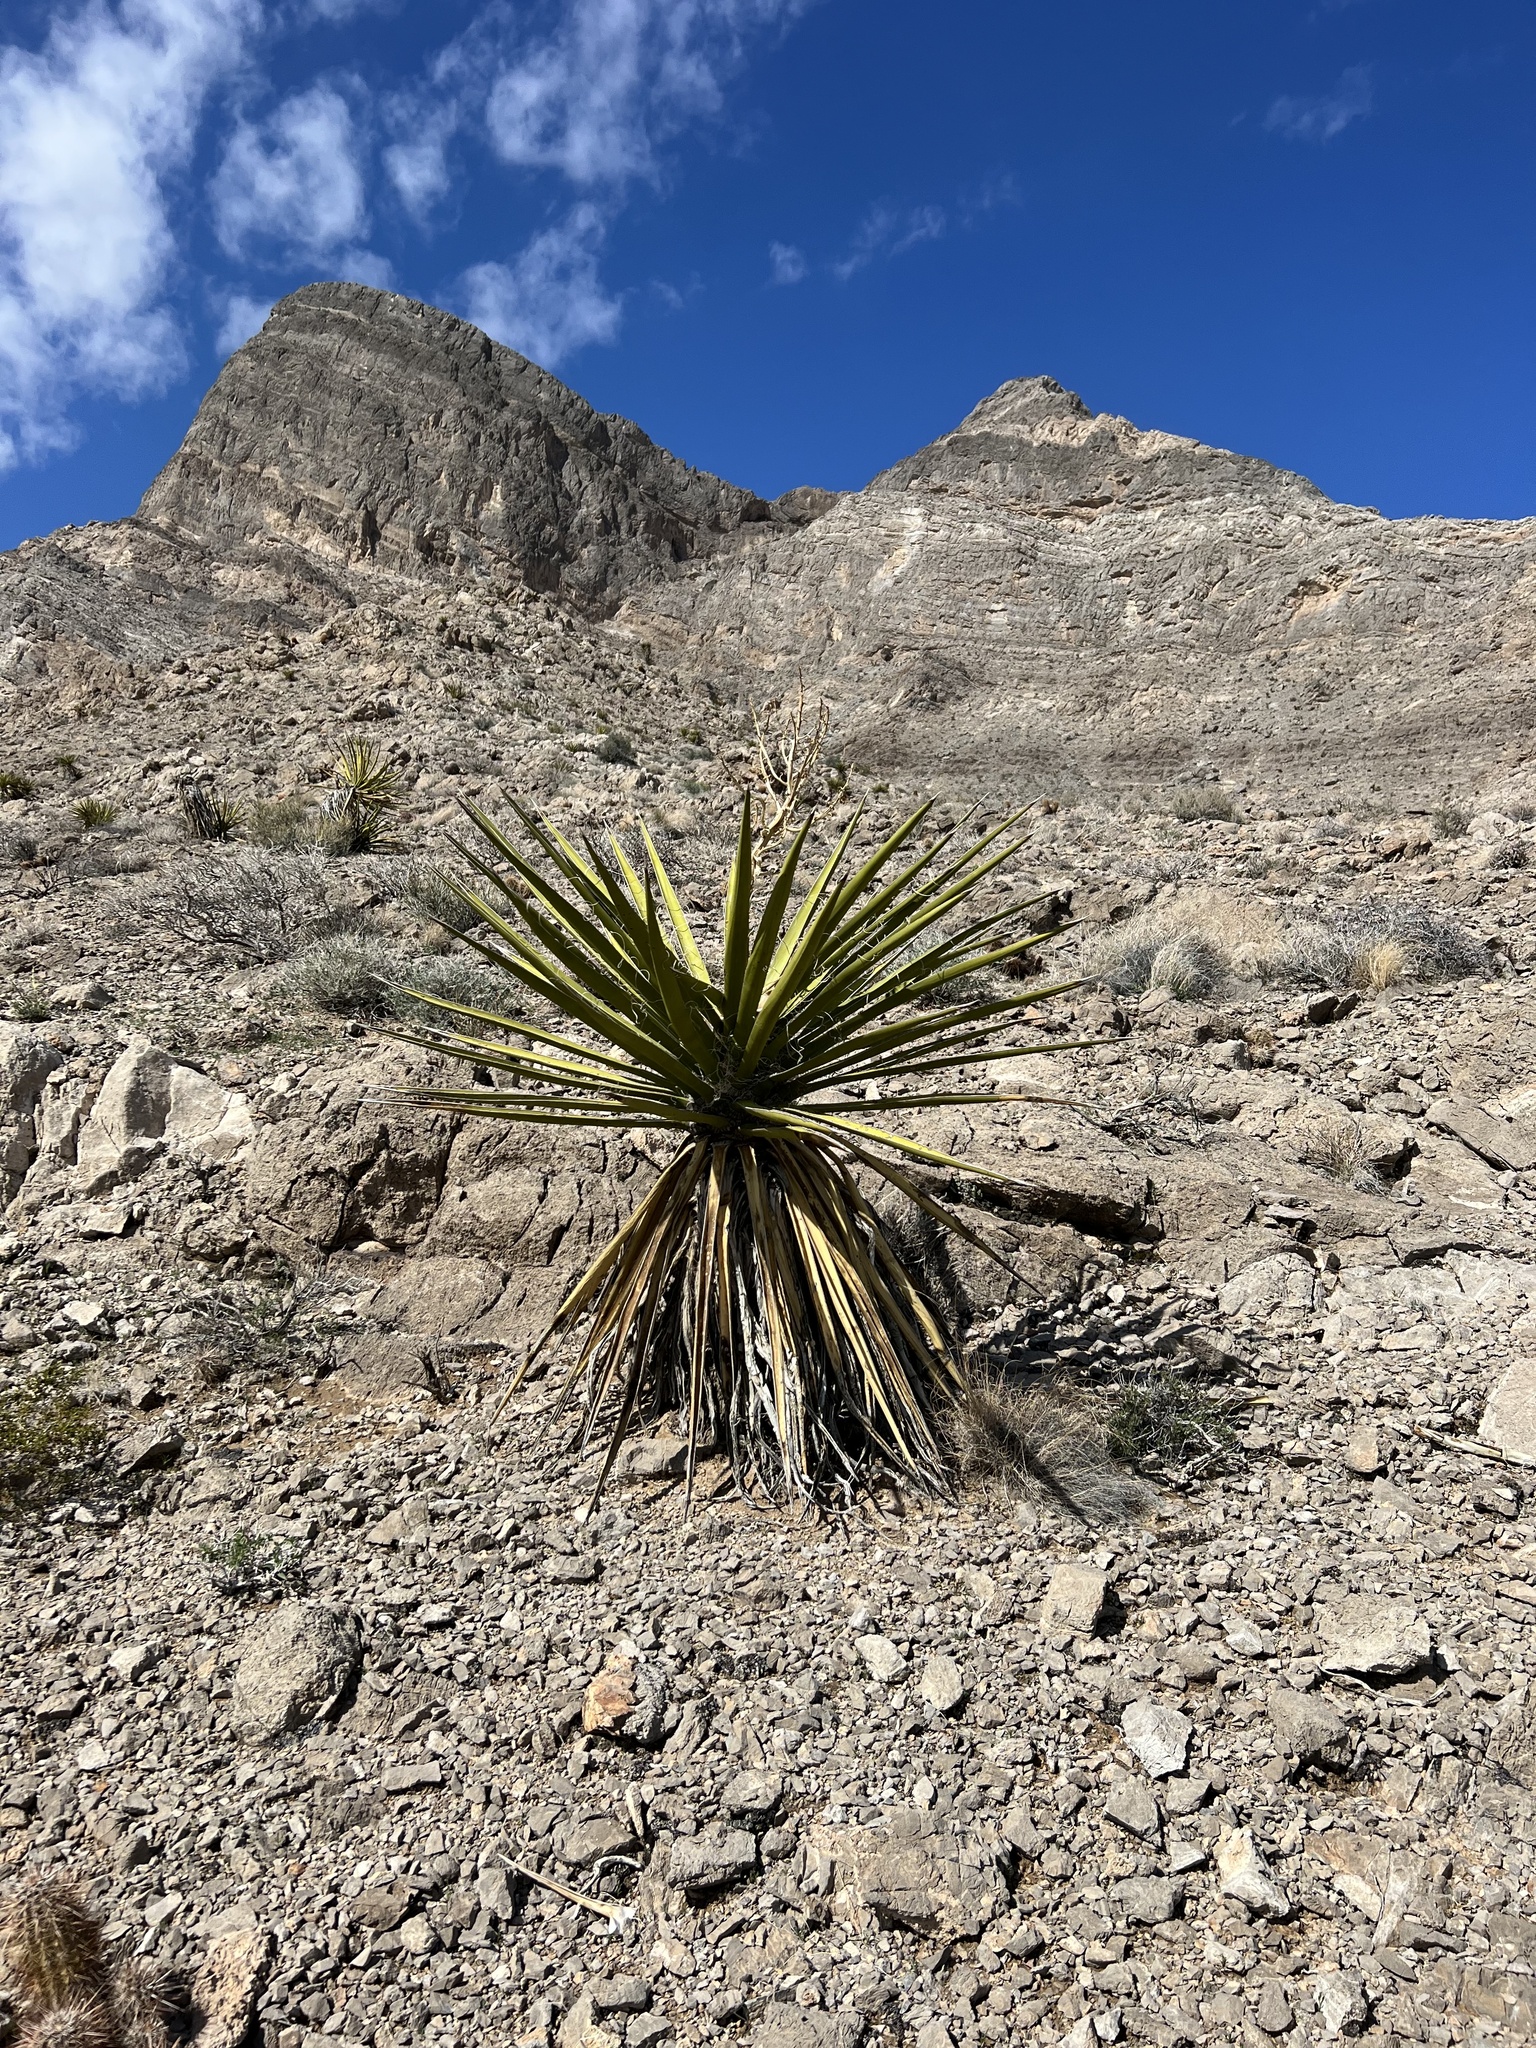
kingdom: Plantae
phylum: Tracheophyta
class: Liliopsida
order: Asparagales
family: Asparagaceae
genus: Yucca
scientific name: Yucca schidigera
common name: Mojave yucca
